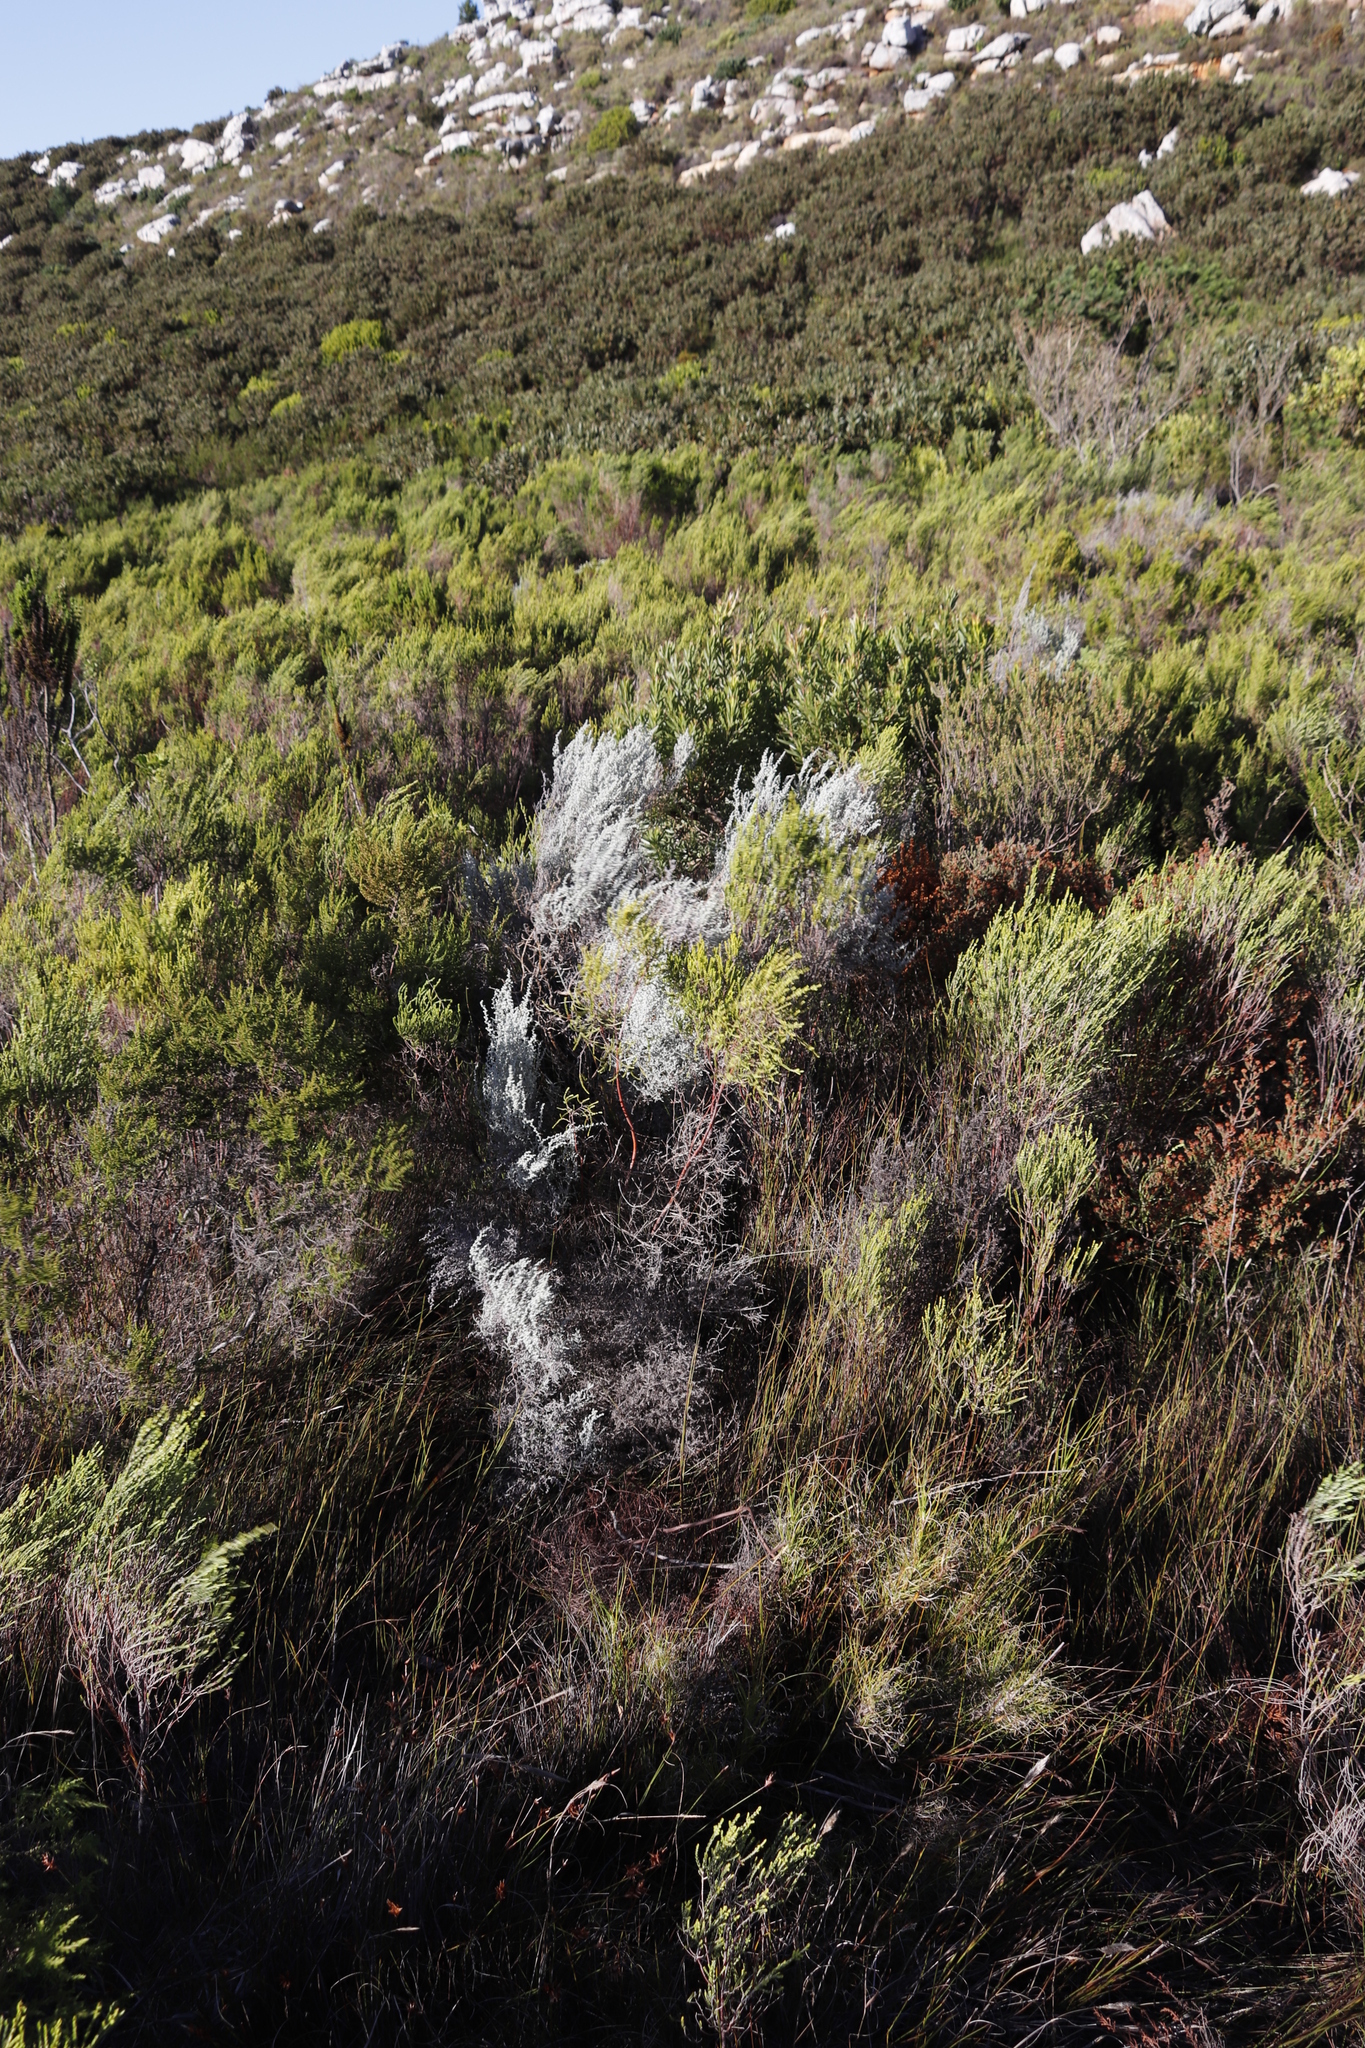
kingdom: Plantae
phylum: Tracheophyta
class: Magnoliopsida
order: Asterales
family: Asteraceae
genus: Seriphium
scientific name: Seriphium plumosum
